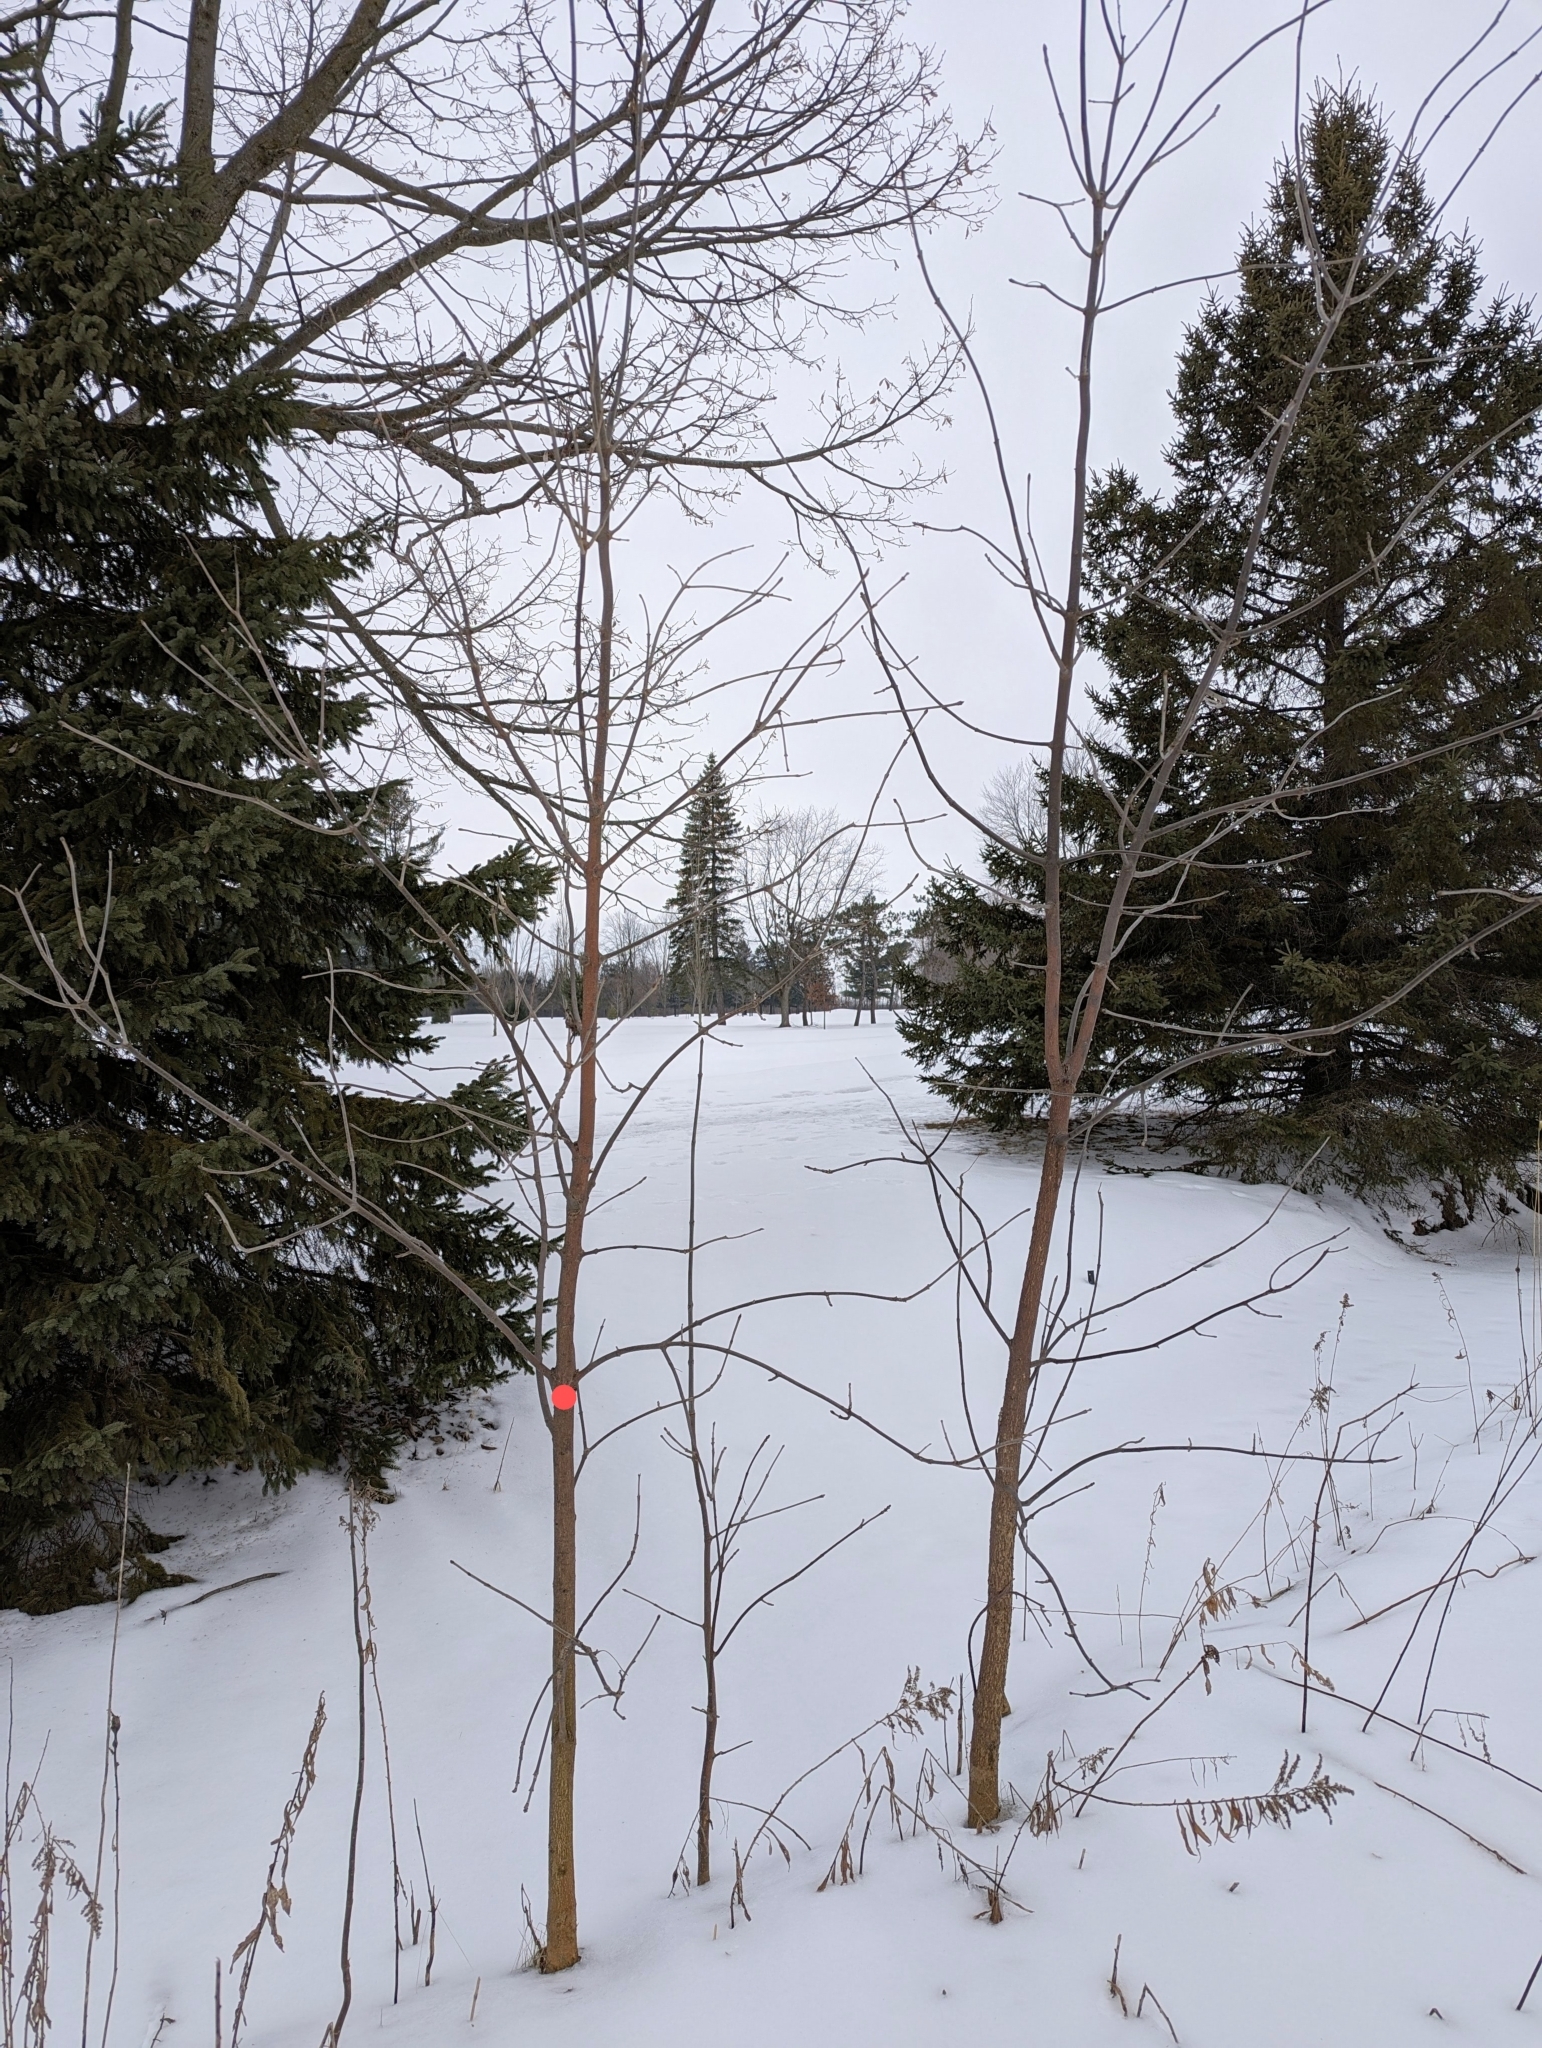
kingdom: Plantae
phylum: Tracheophyta
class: Magnoliopsida
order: Lamiales
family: Oleaceae
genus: Fraxinus
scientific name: Fraxinus pennsylvanica
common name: Green ash
